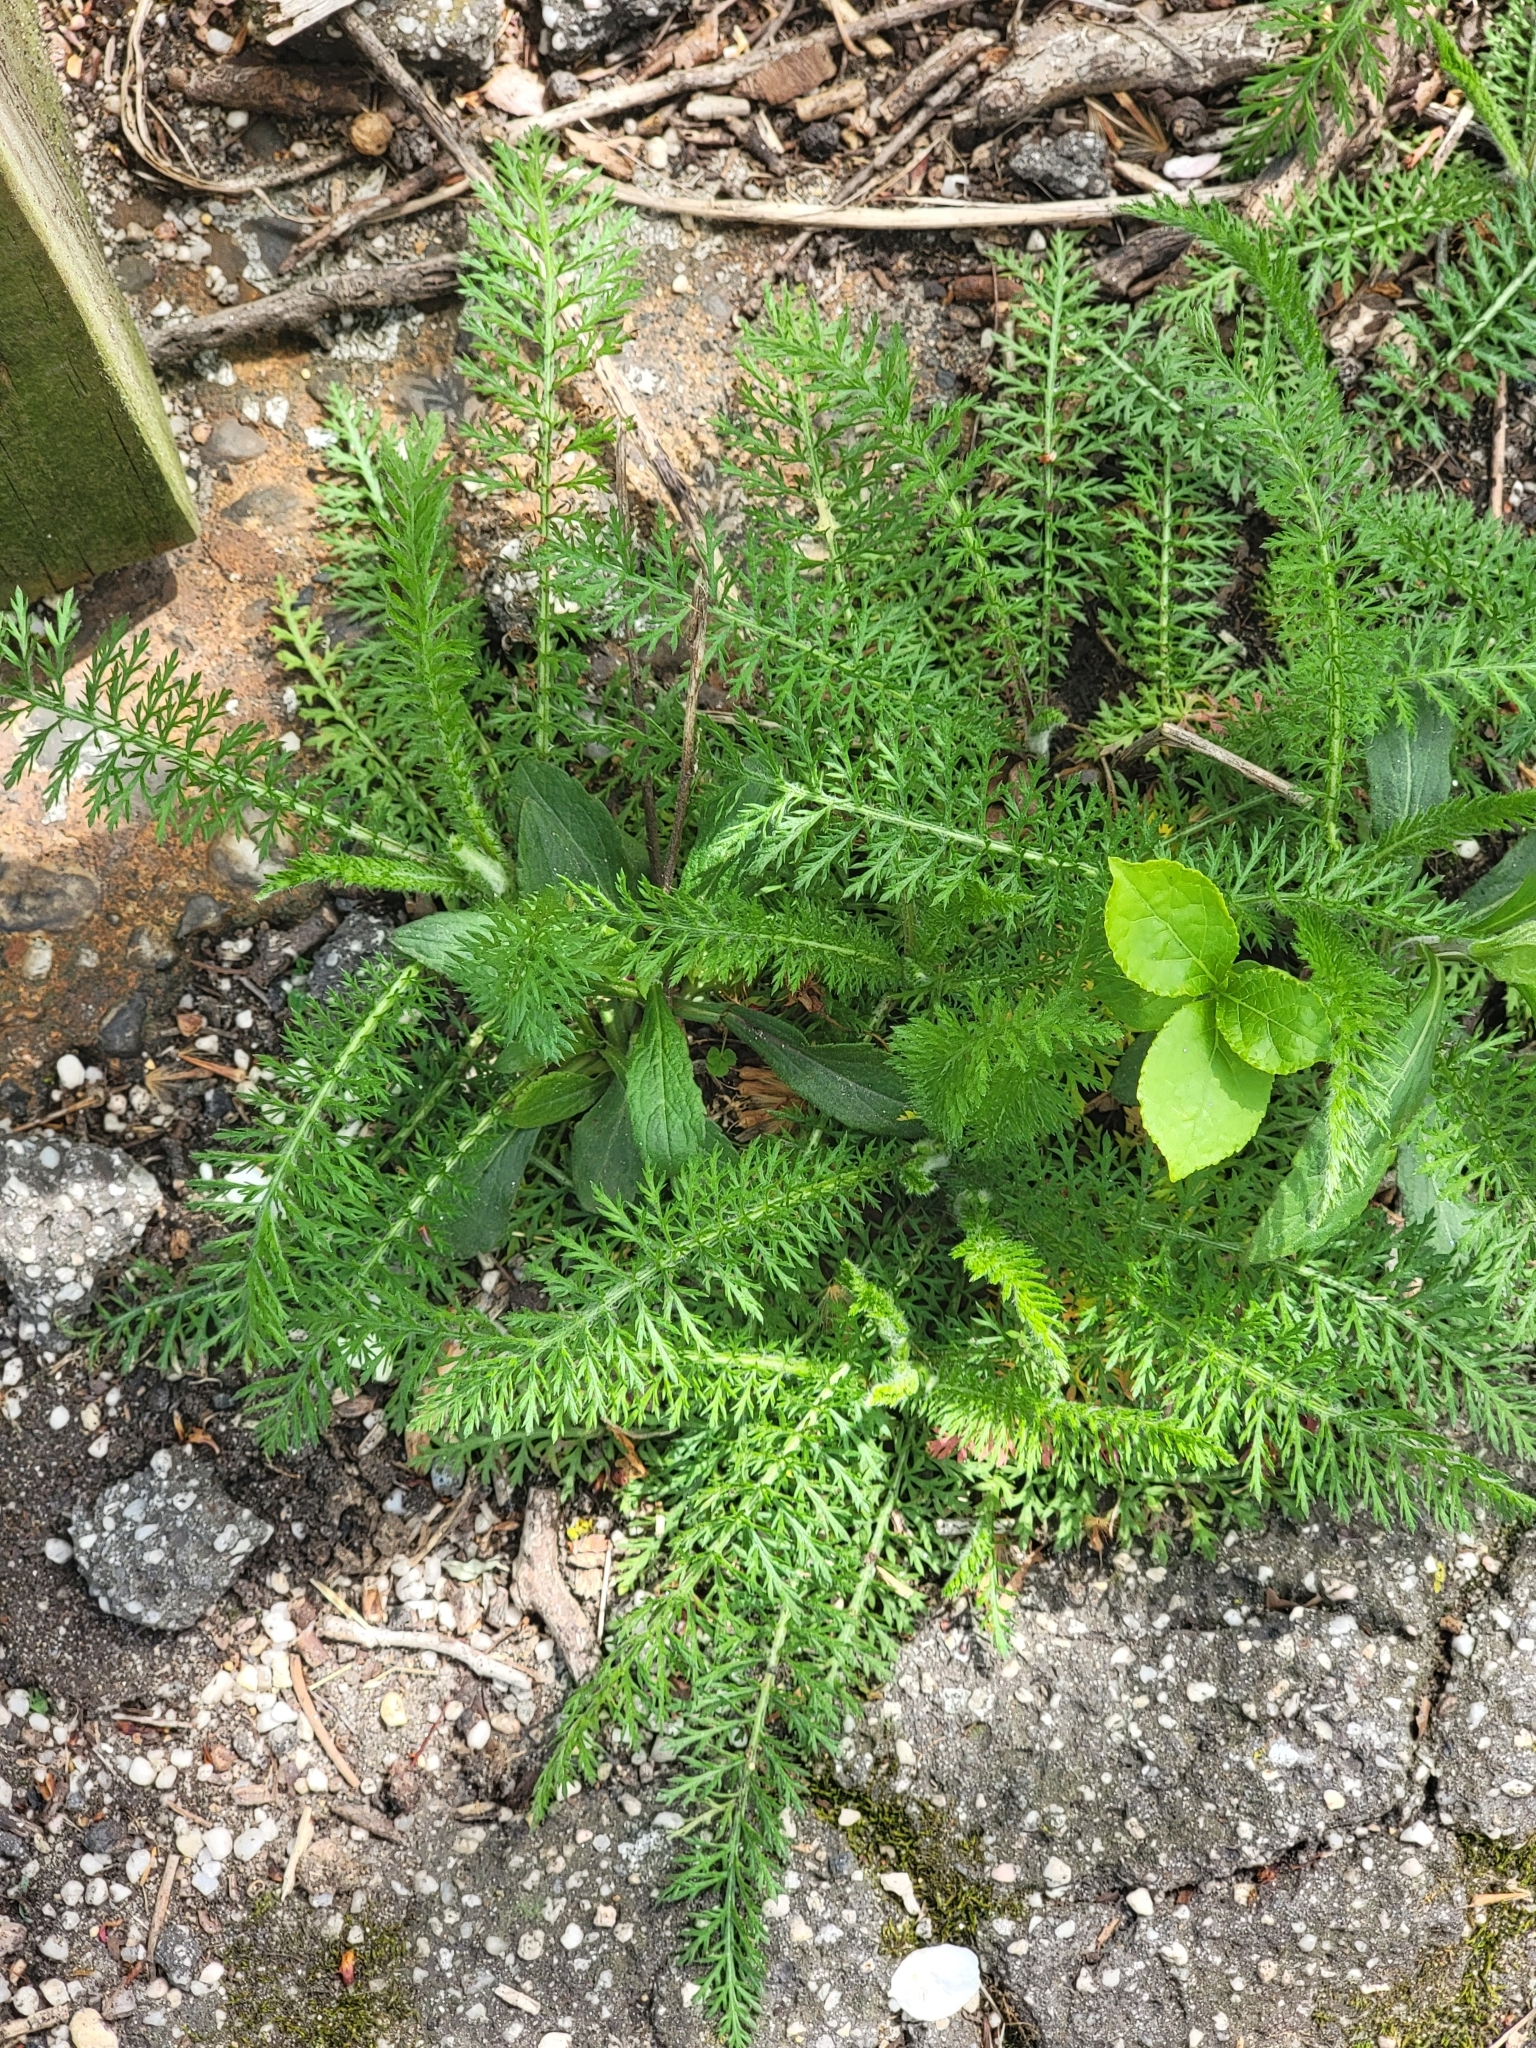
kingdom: Plantae
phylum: Tracheophyta
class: Magnoliopsida
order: Asterales
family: Asteraceae
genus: Achillea
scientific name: Achillea millefolium
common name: Yarrow
